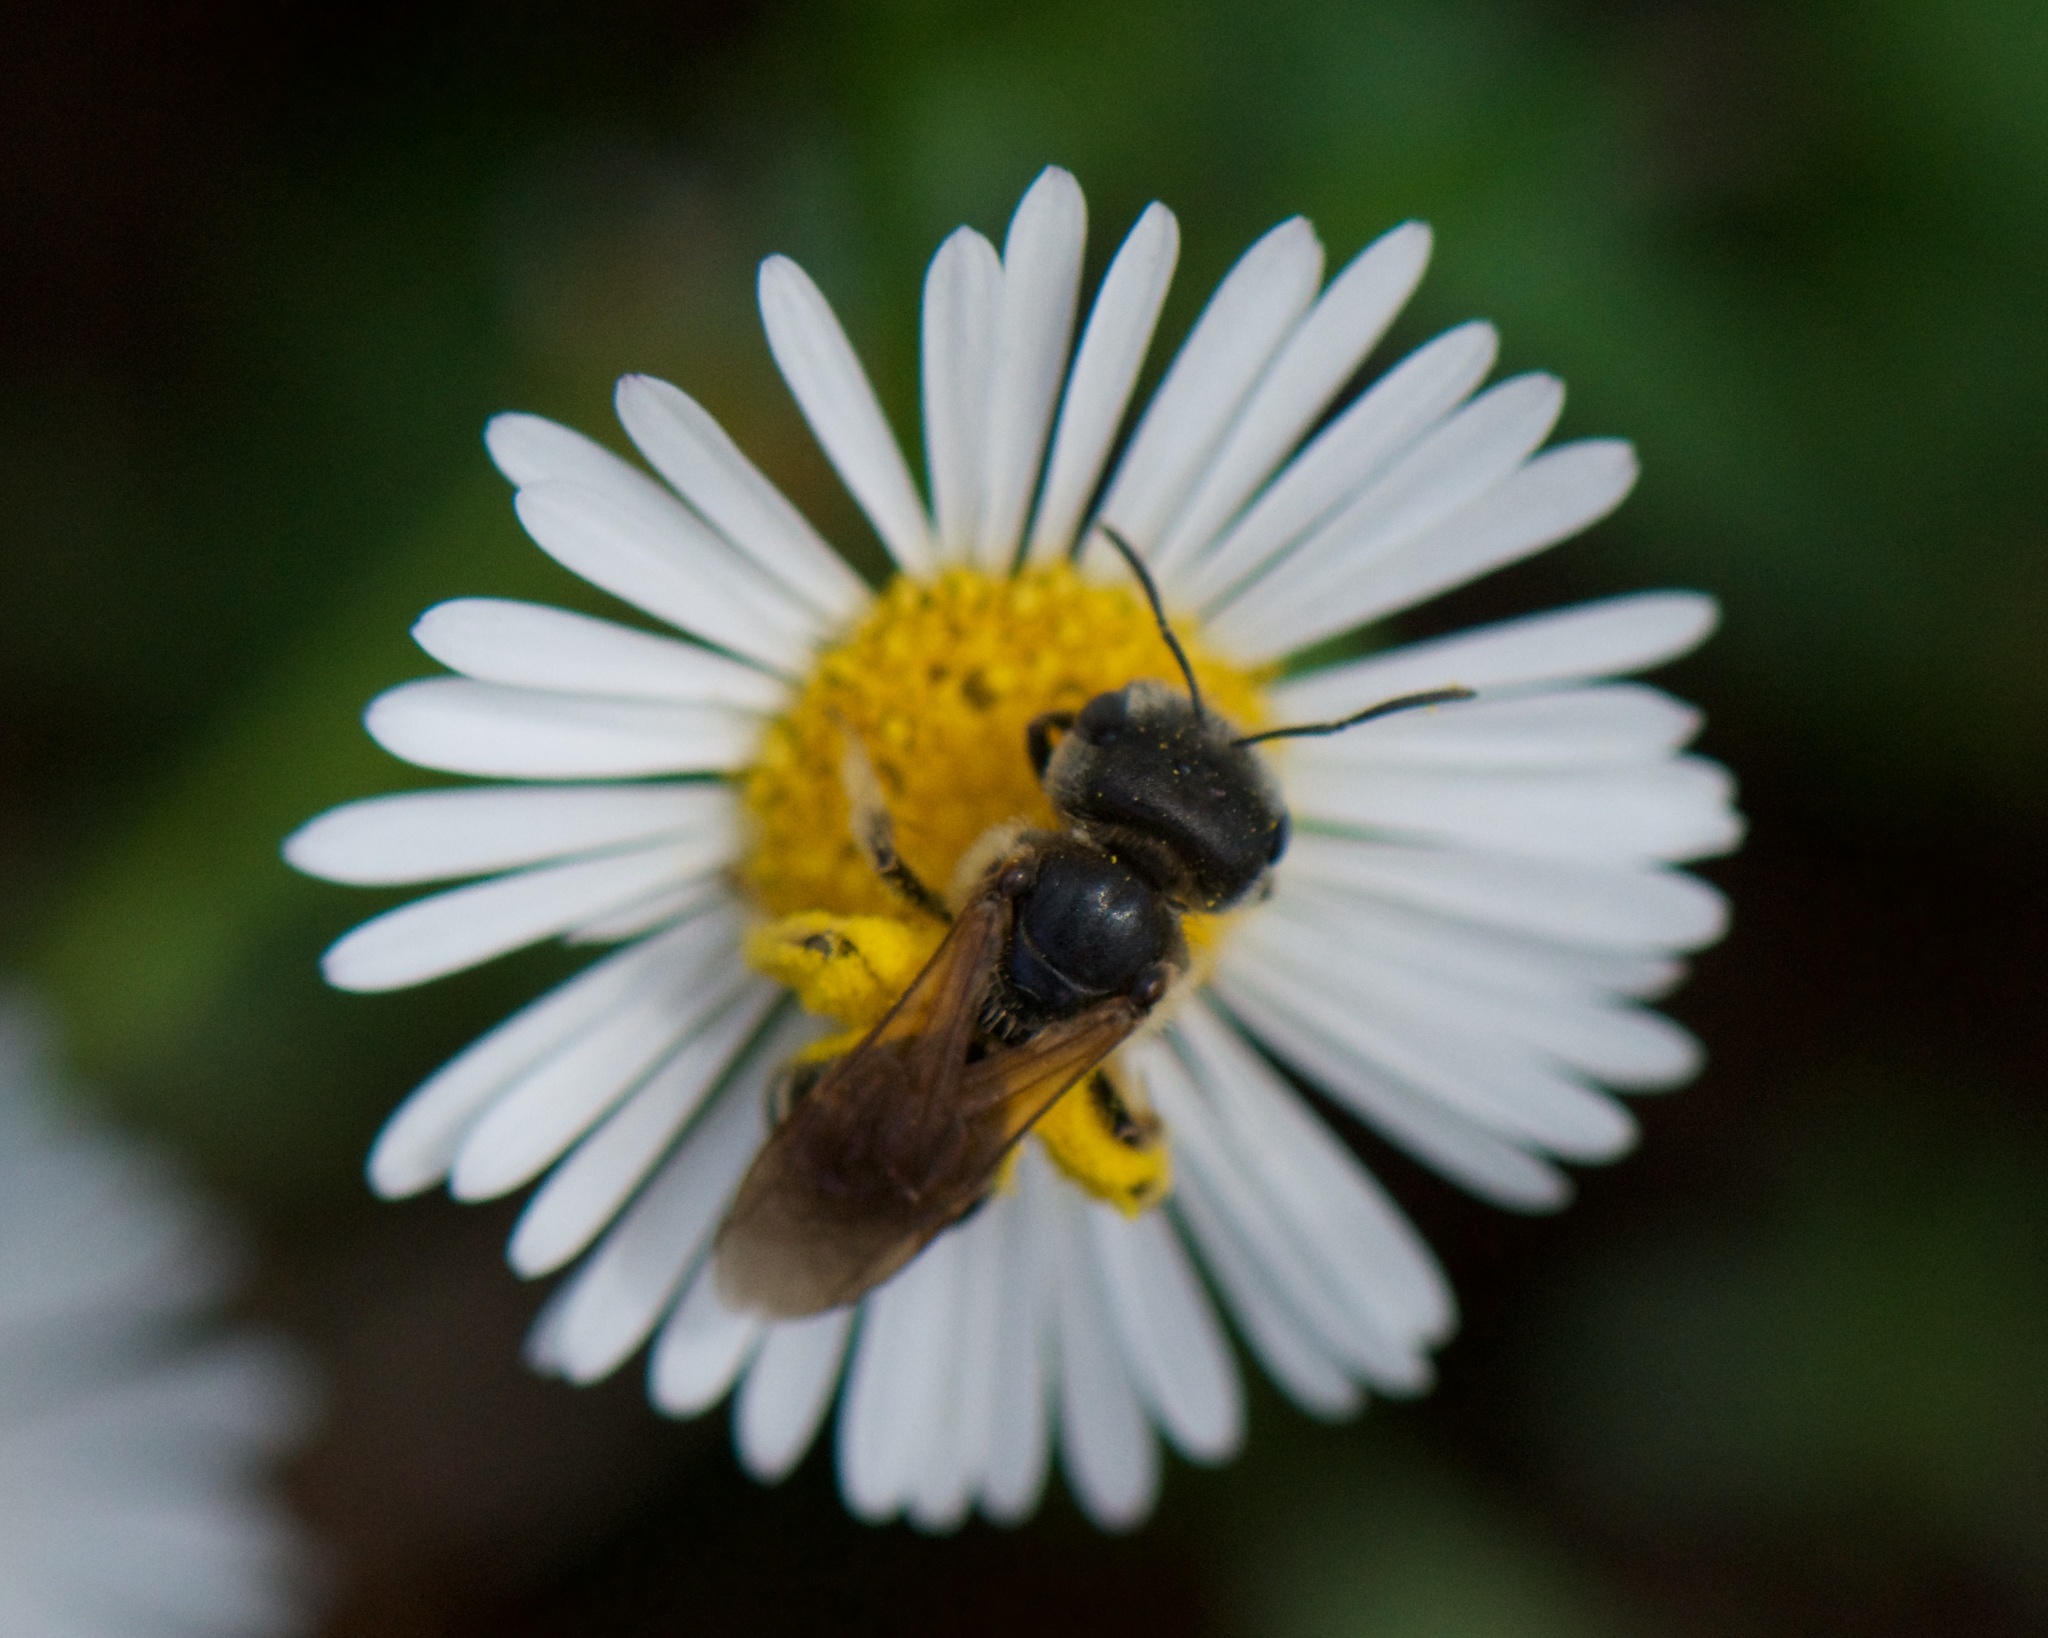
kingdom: Animalia
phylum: Arthropoda
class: Insecta
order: Hymenoptera
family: Halictidae
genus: Halictus
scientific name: Halictus ligatus
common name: Ligated furrow bee
